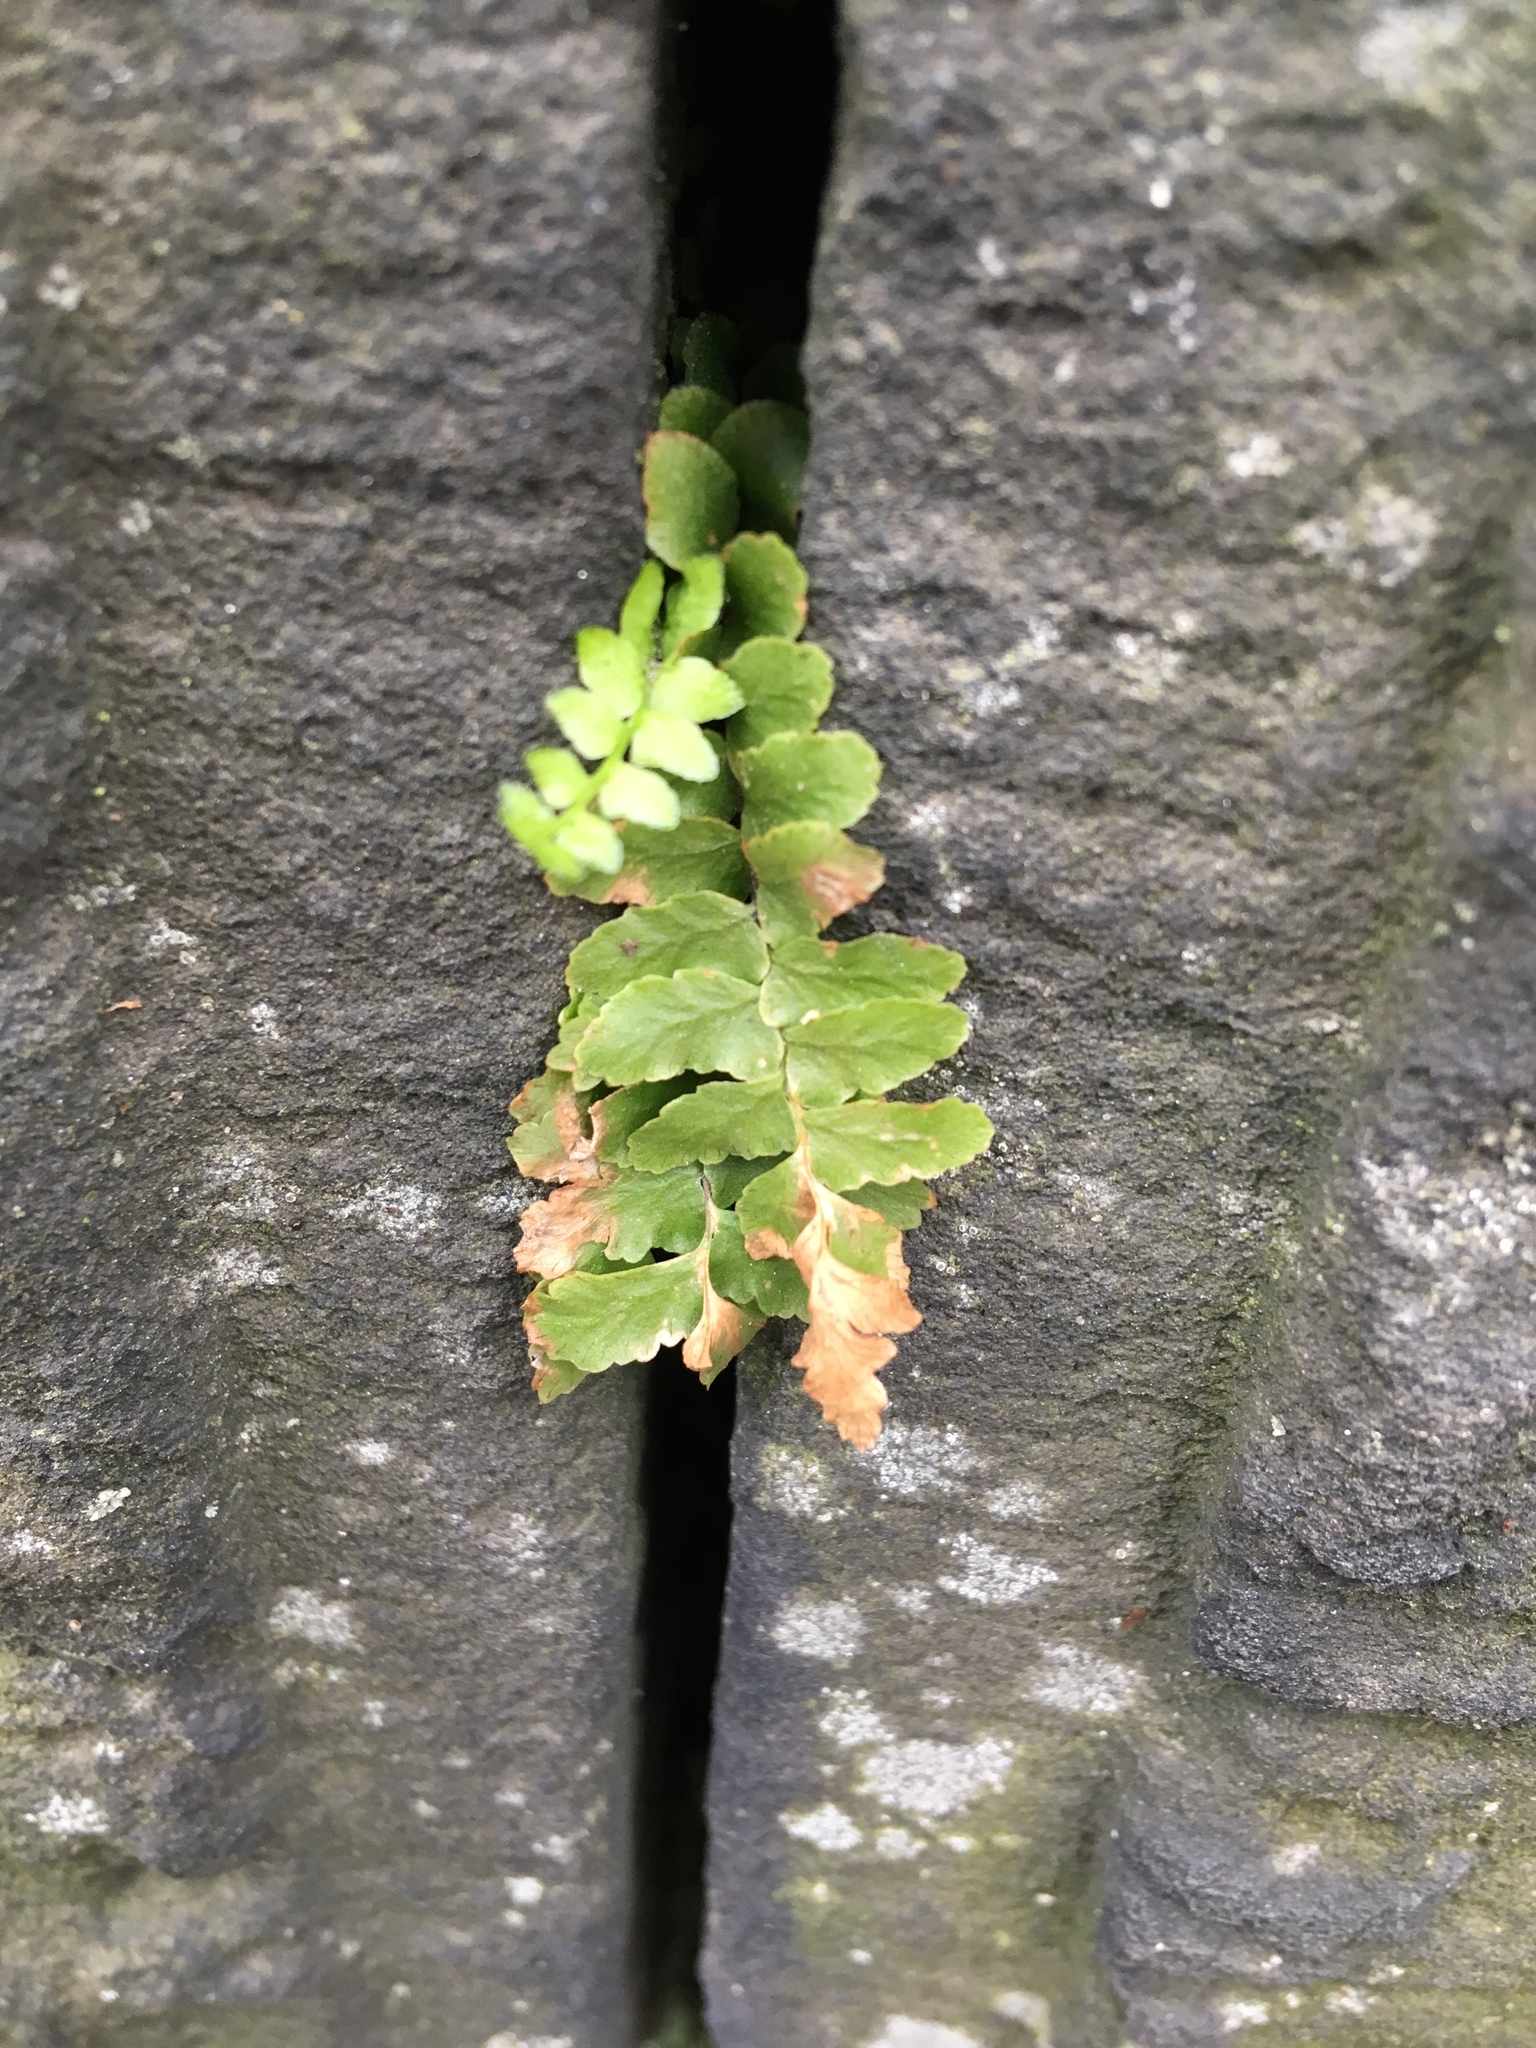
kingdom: Plantae
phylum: Tracheophyta
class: Polypodiopsida
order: Polypodiales
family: Aspleniaceae
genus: Asplenium
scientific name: Asplenium platyneuron
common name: Ebony spleenwort
